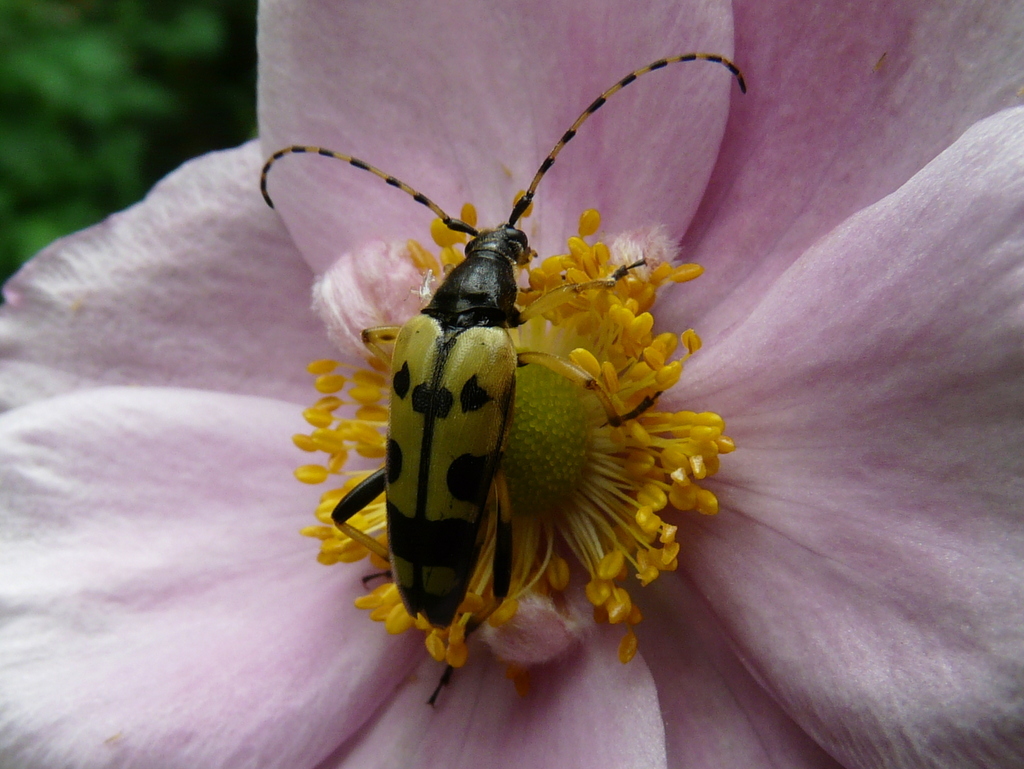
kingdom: Animalia
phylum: Arthropoda
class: Insecta
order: Coleoptera
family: Cerambycidae
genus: Rutpela
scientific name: Rutpela maculata
